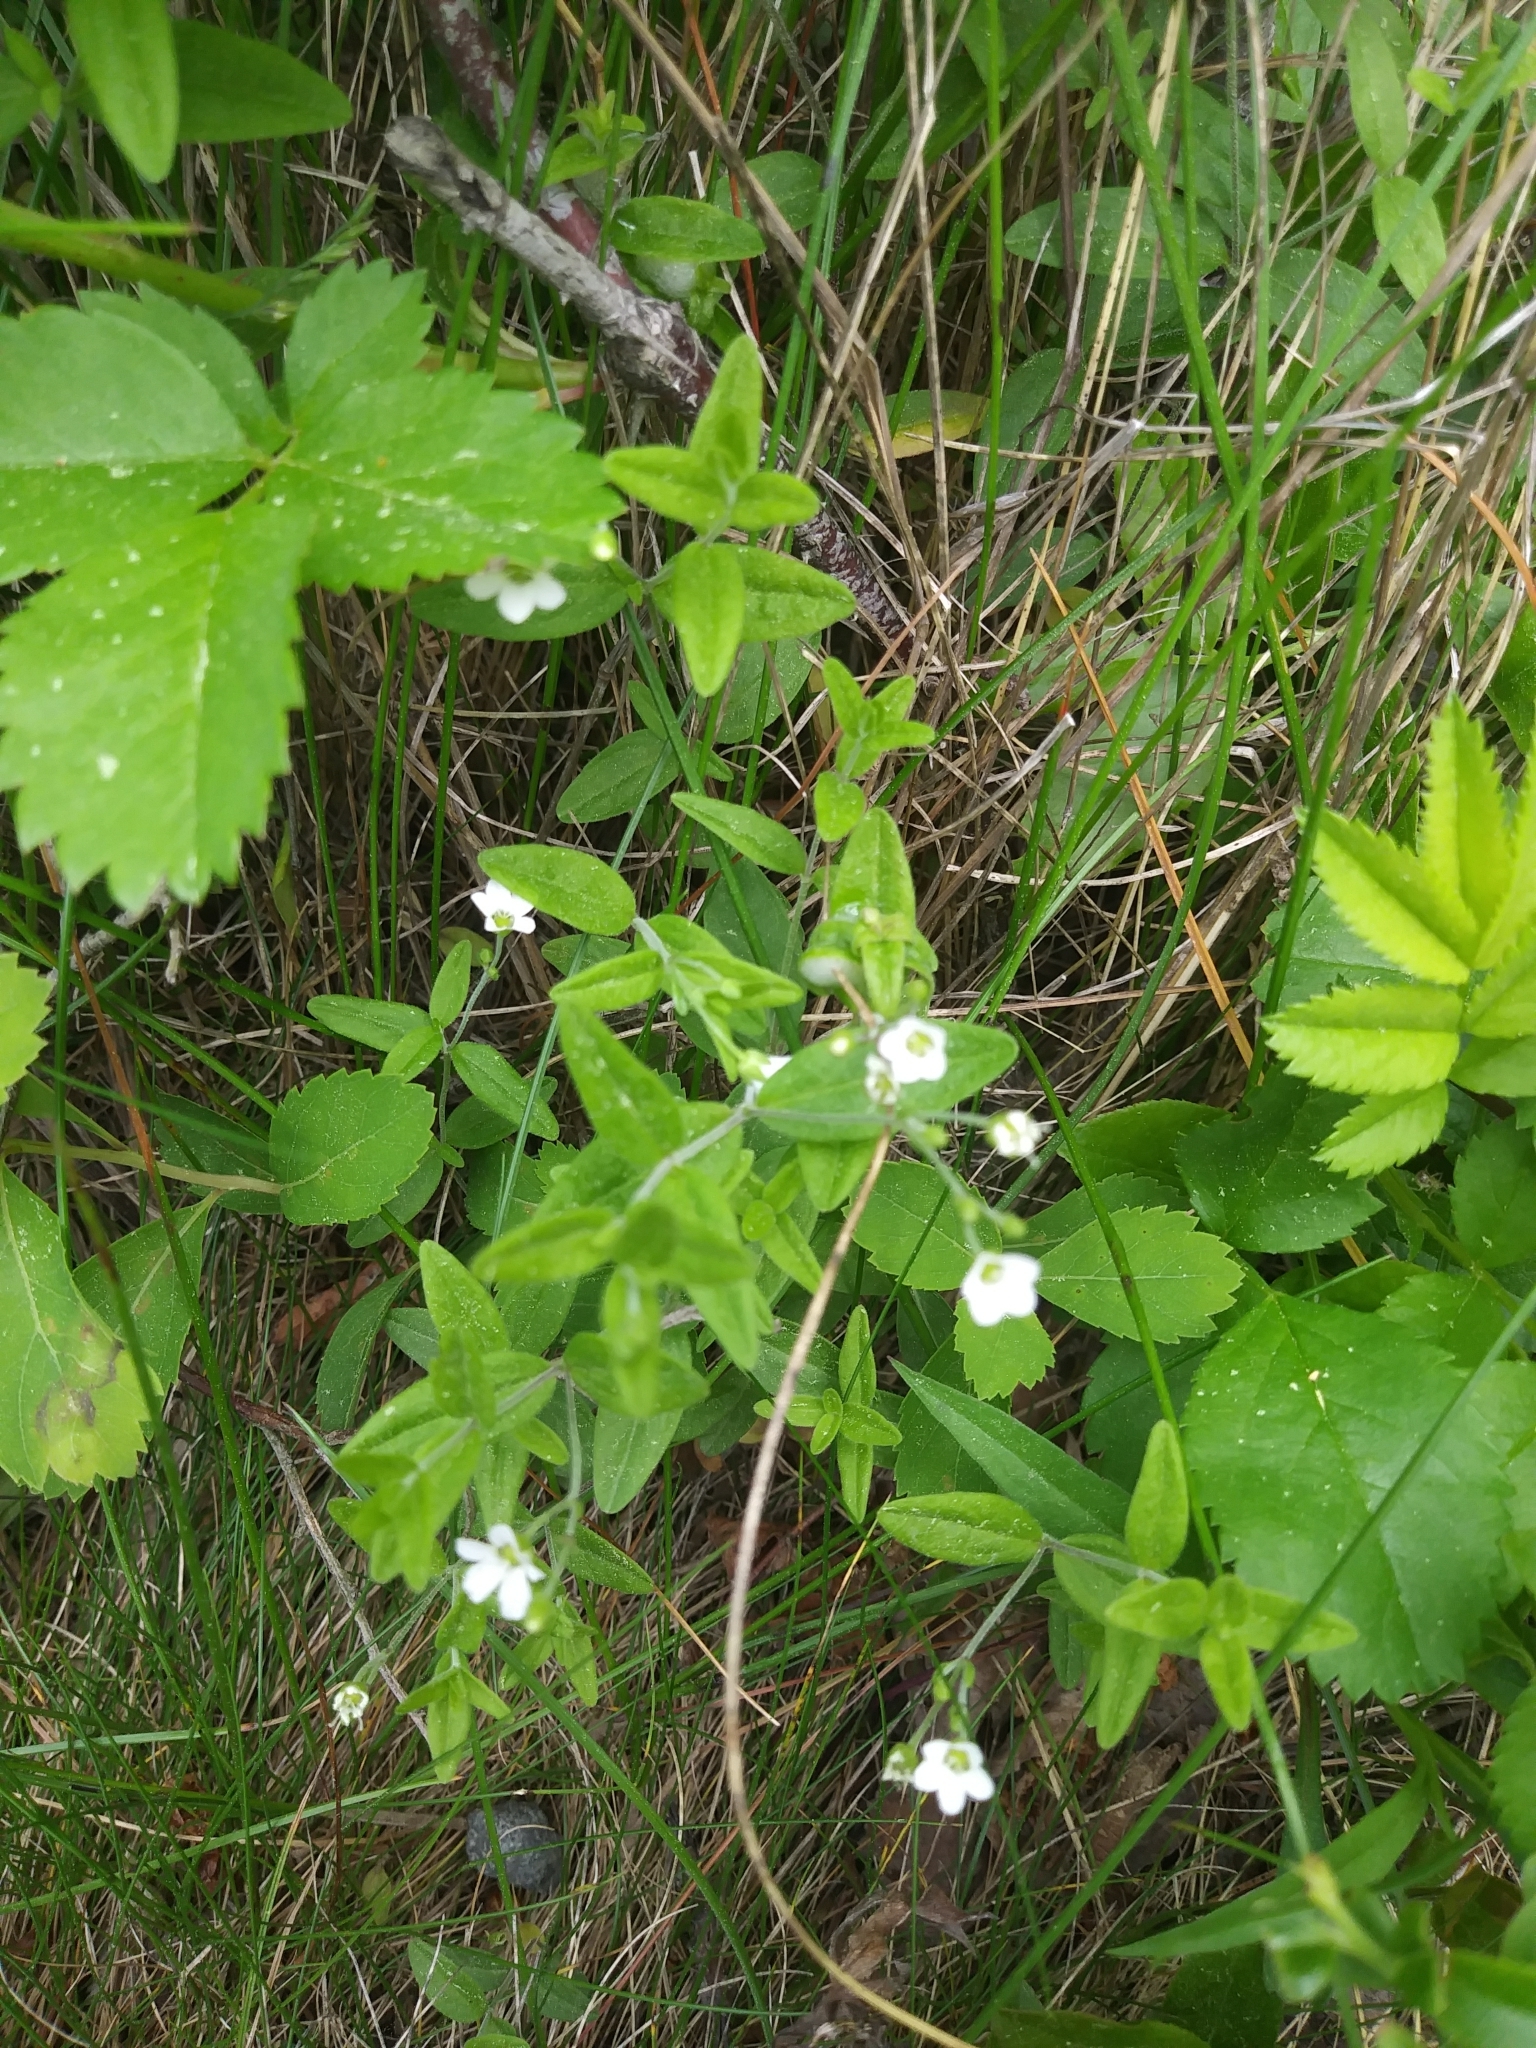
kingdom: Plantae
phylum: Tracheophyta
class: Magnoliopsida
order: Caryophyllales
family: Caryophyllaceae
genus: Moehringia
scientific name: Moehringia lateriflora
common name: Blunt-leaved sandwort
